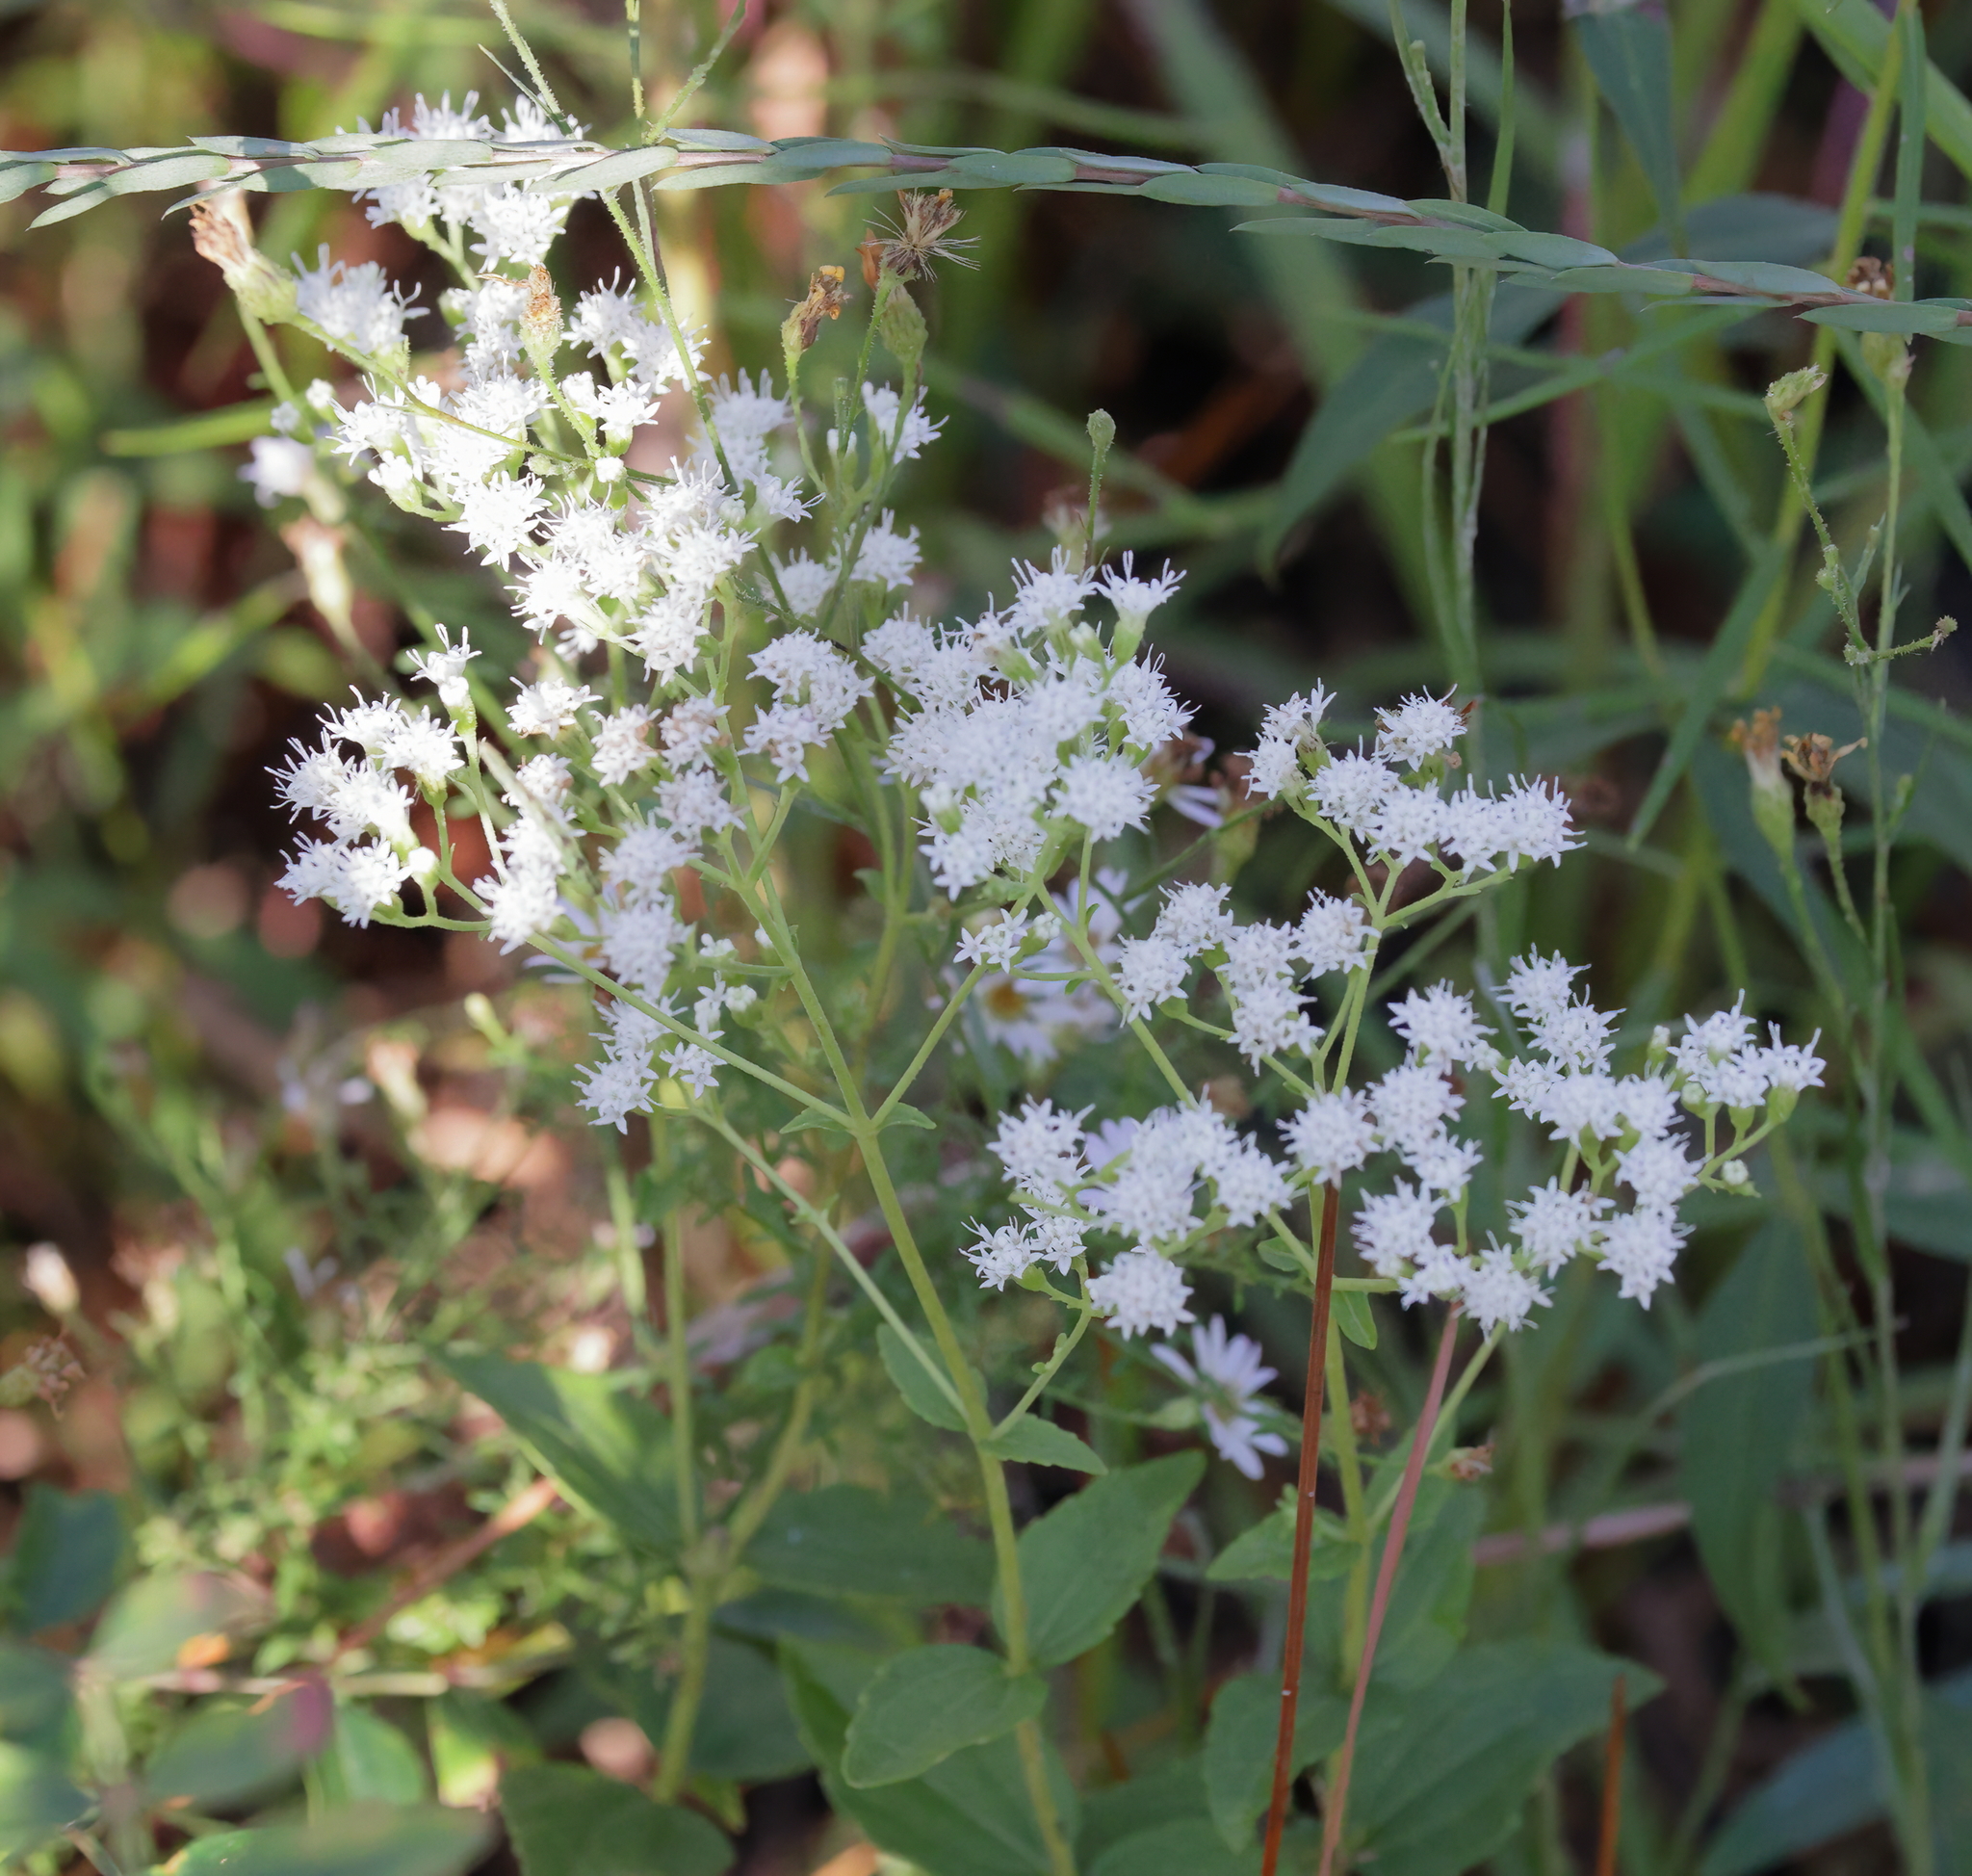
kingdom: Plantae
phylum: Tracheophyta
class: Magnoliopsida
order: Asterales
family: Asteraceae
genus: Ageratina
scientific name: Ageratina aromatica
